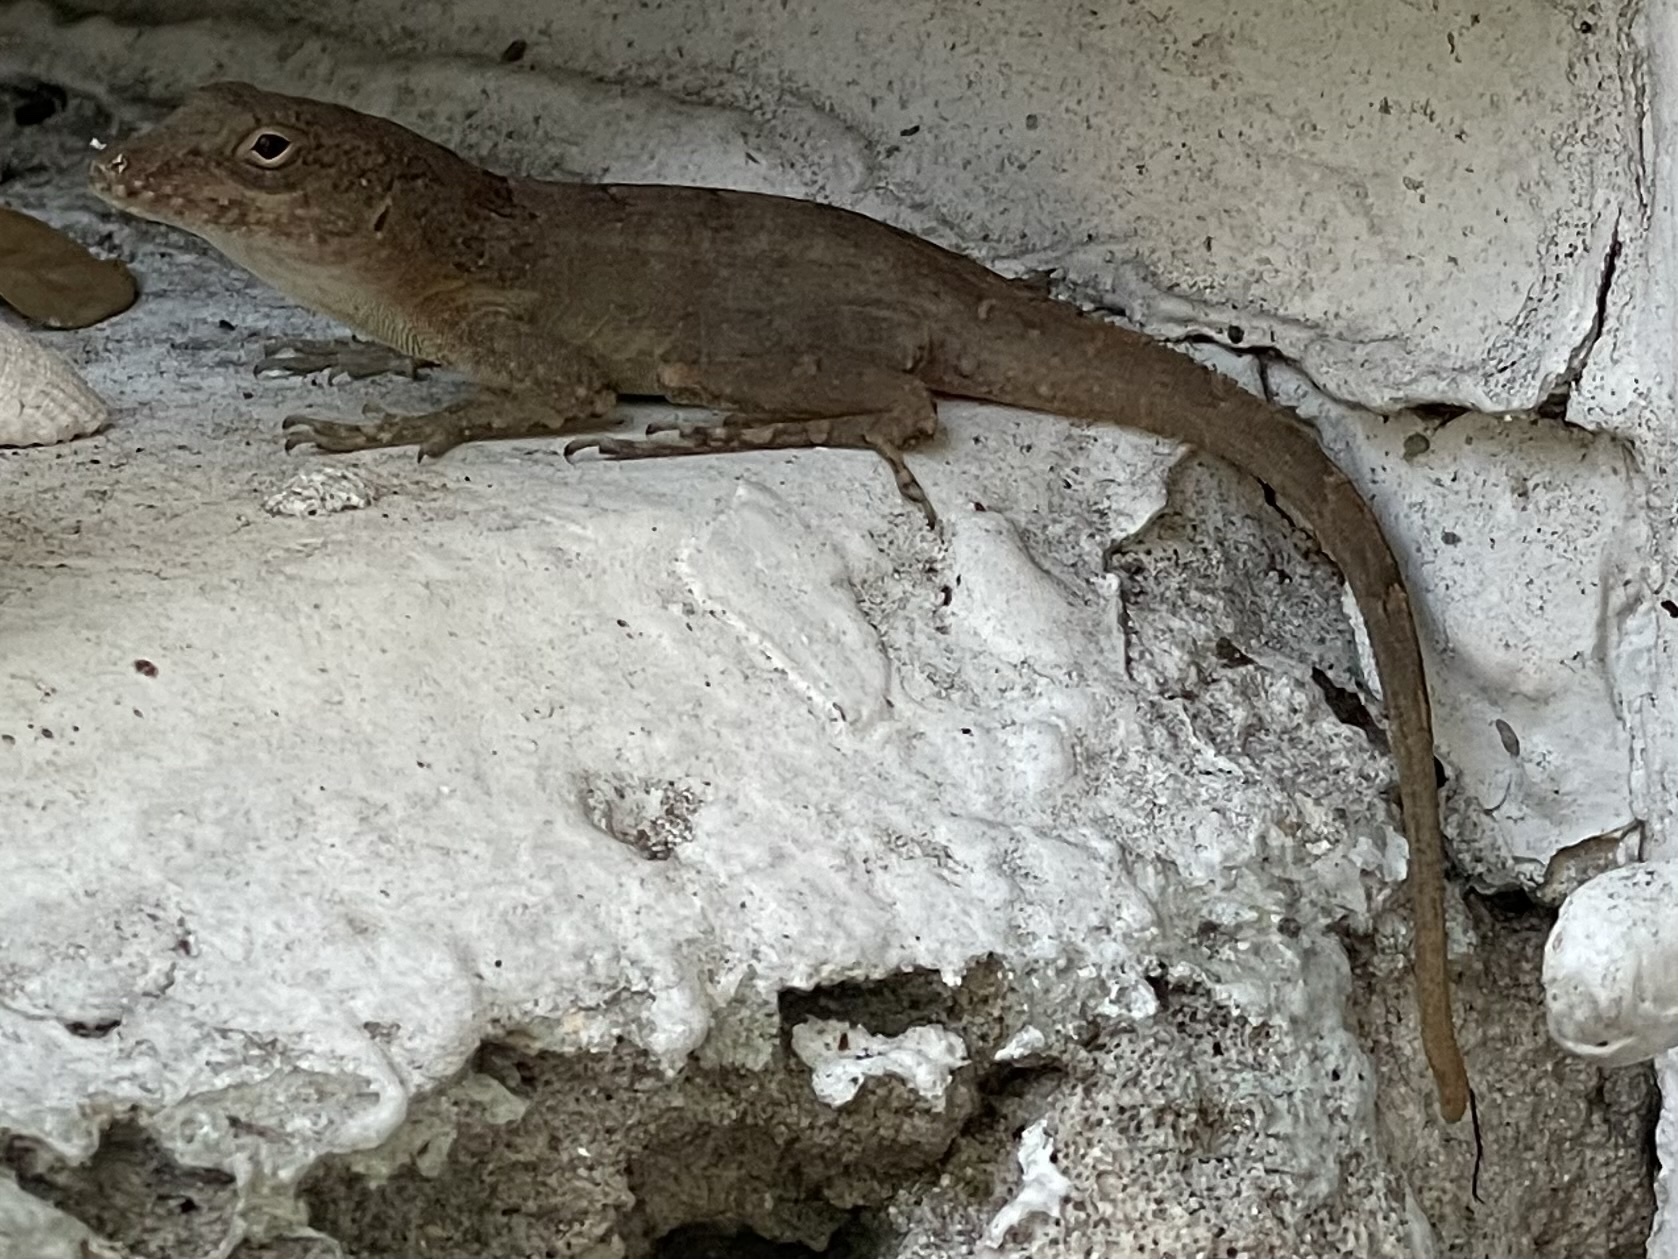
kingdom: Animalia
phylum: Chordata
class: Squamata
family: Dactyloidae
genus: Anolis
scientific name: Anolis cristatellus
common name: Crested anole
